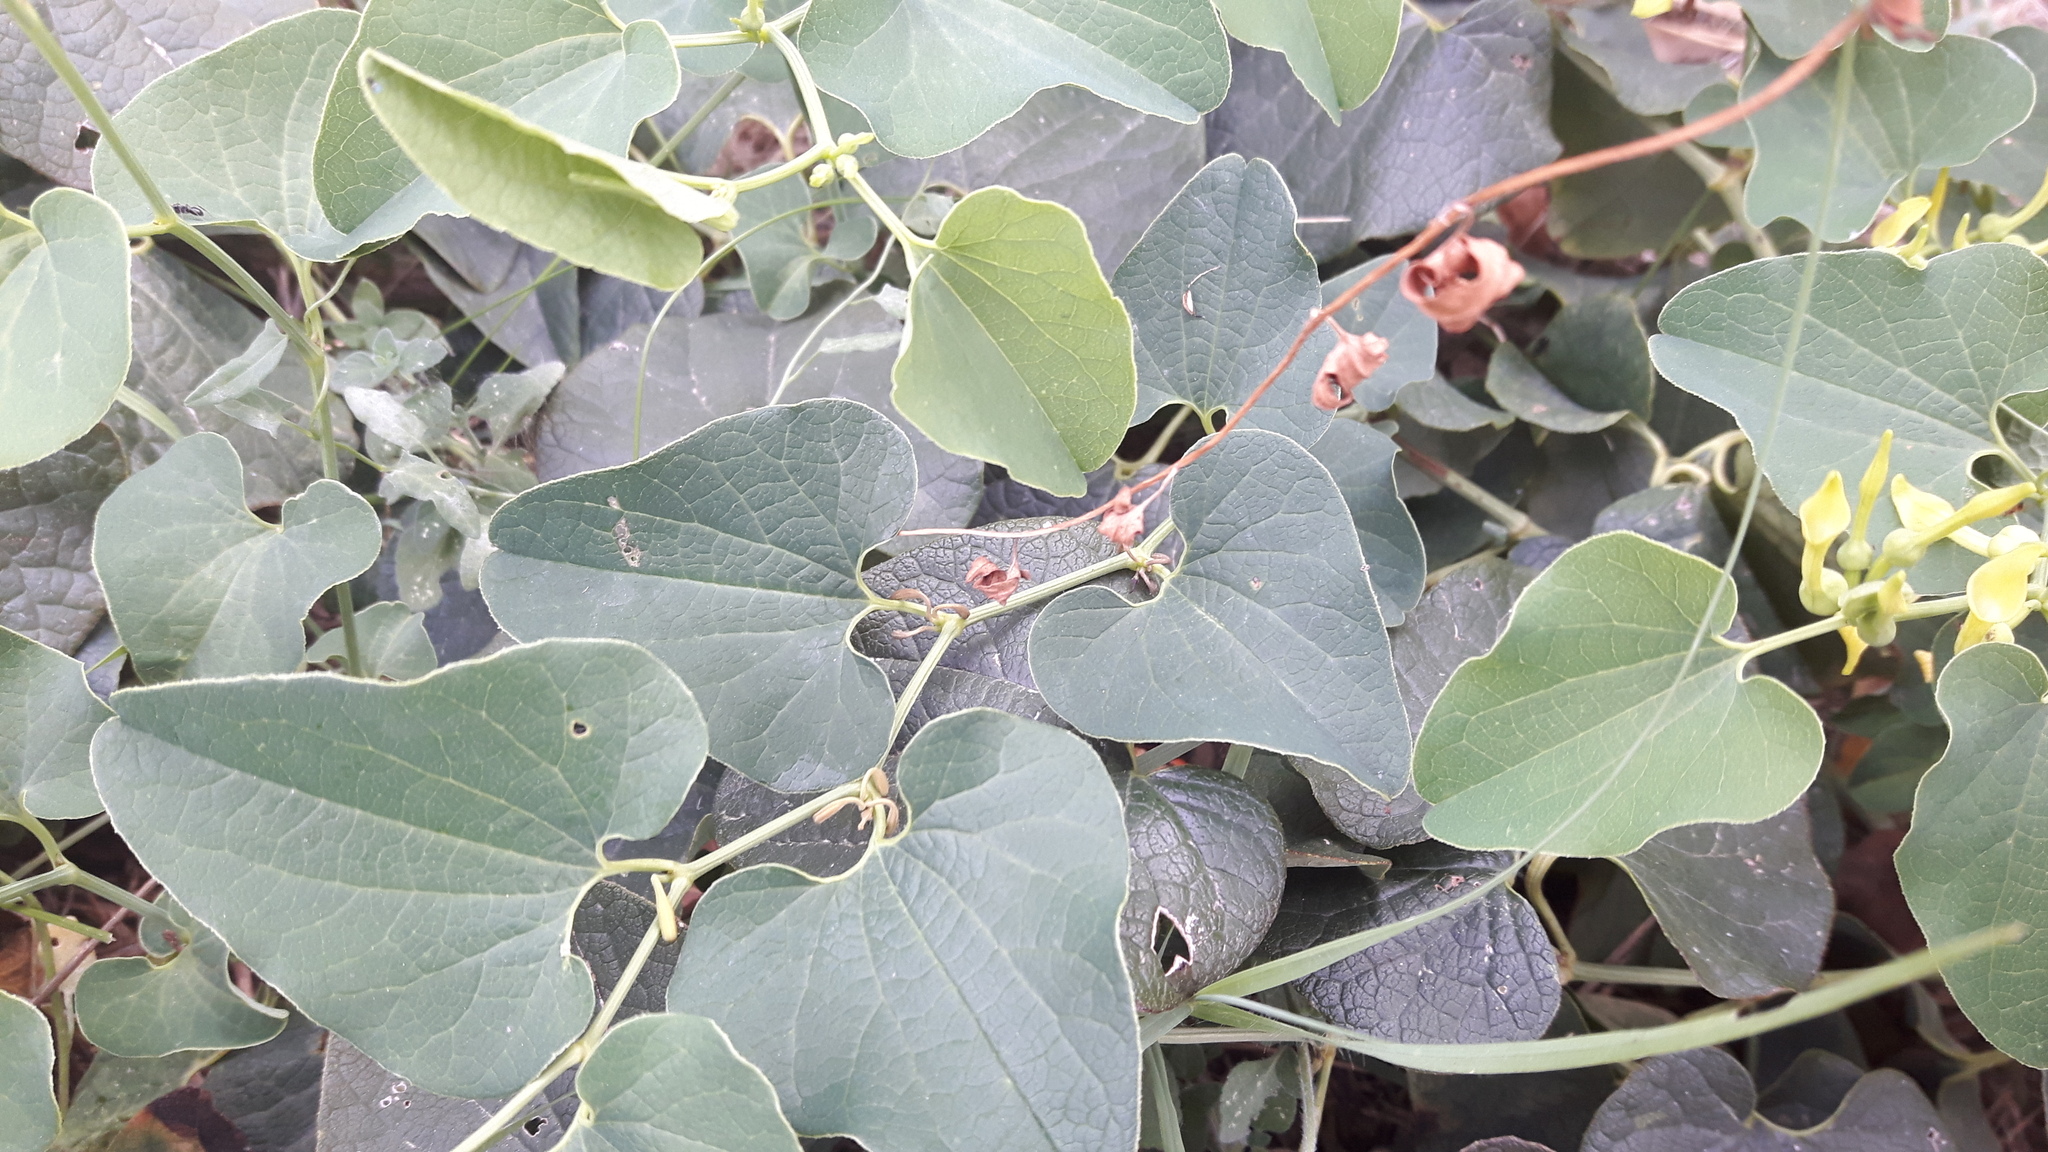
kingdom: Plantae
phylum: Tracheophyta
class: Magnoliopsida
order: Piperales
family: Aristolochiaceae
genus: Aristolochia
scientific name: Aristolochia clematitis
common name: Birthwort
